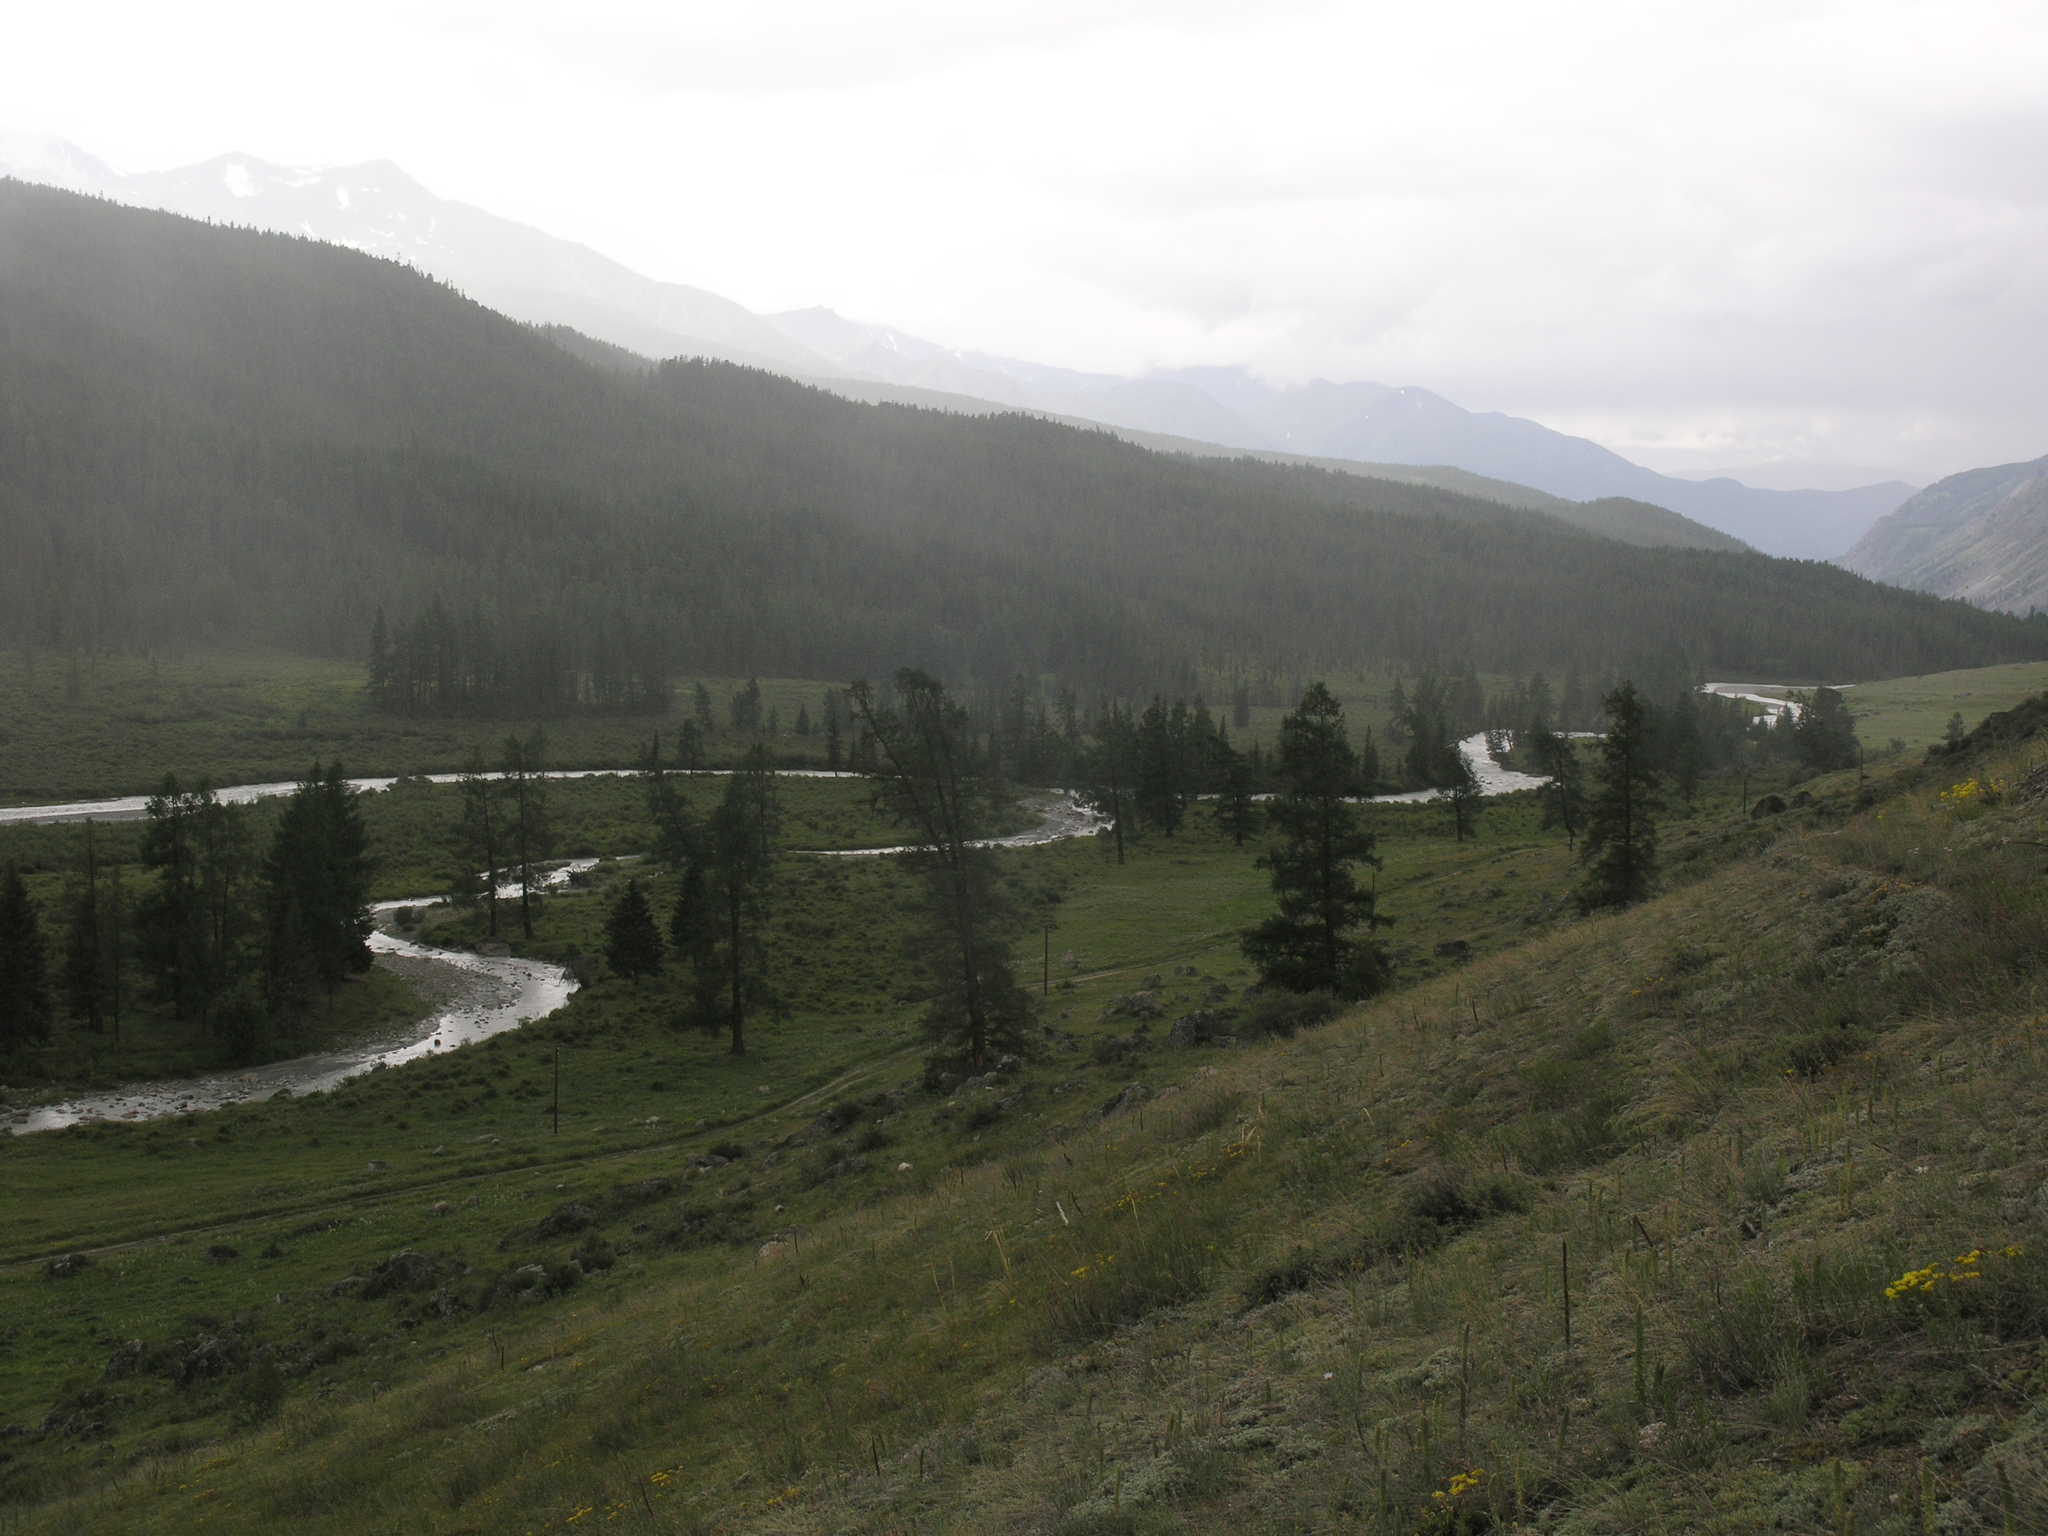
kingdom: Plantae
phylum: Tracheophyta
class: Pinopsida
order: Pinales
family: Pinaceae
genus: Larix
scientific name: Larix sibirica
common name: Siberian larch
